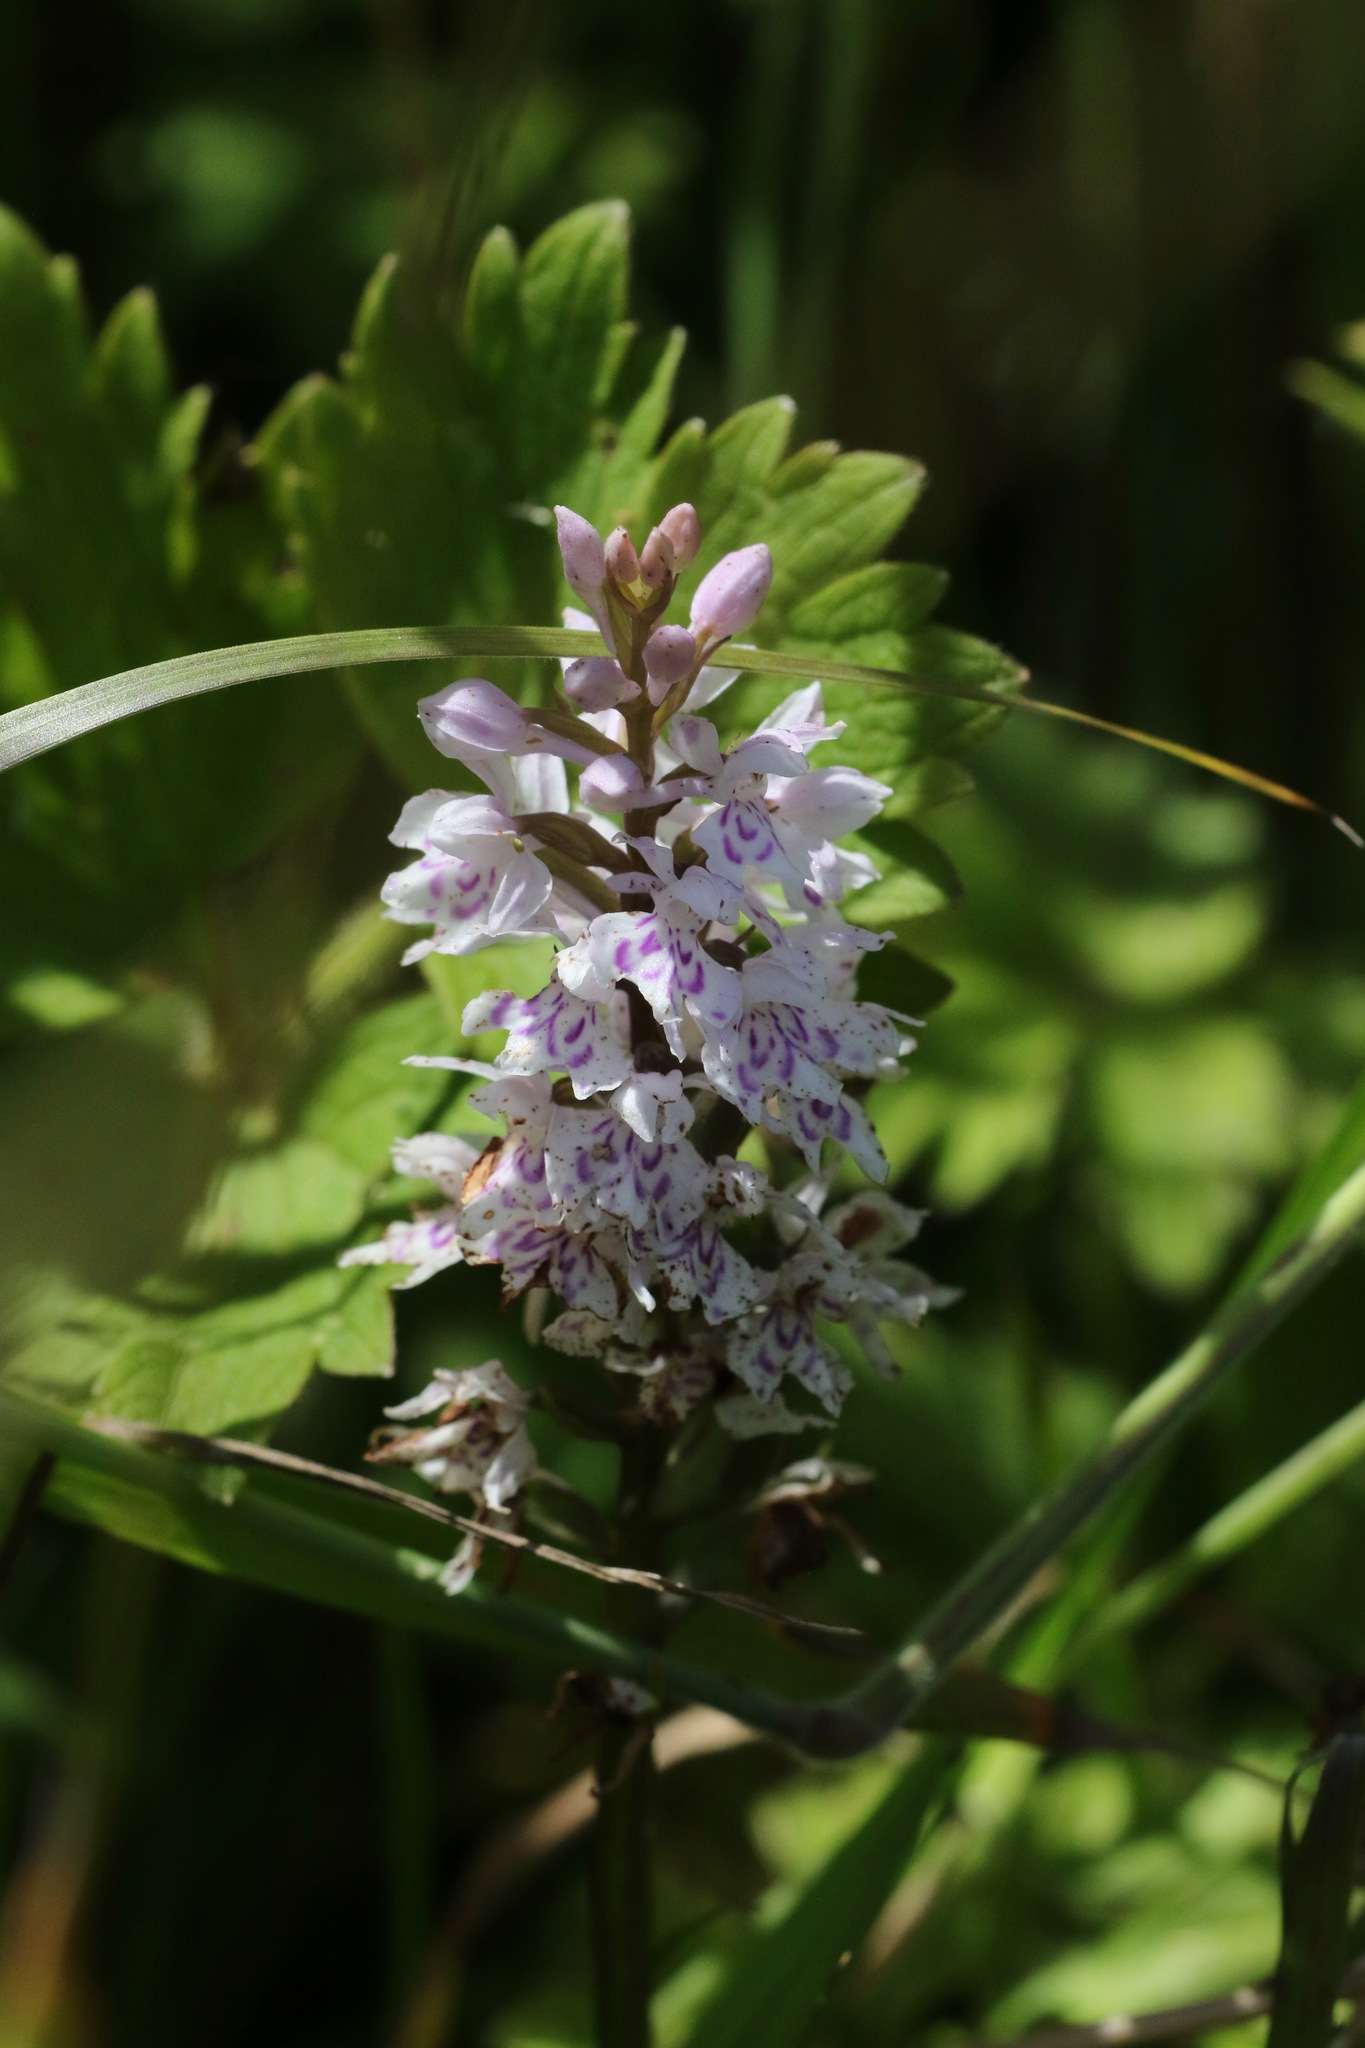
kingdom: Plantae
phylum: Tracheophyta
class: Liliopsida
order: Asparagales
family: Orchidaceae
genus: Dactylorhiza
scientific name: Dactylorhiza maculata
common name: Heath spotted-orchid
